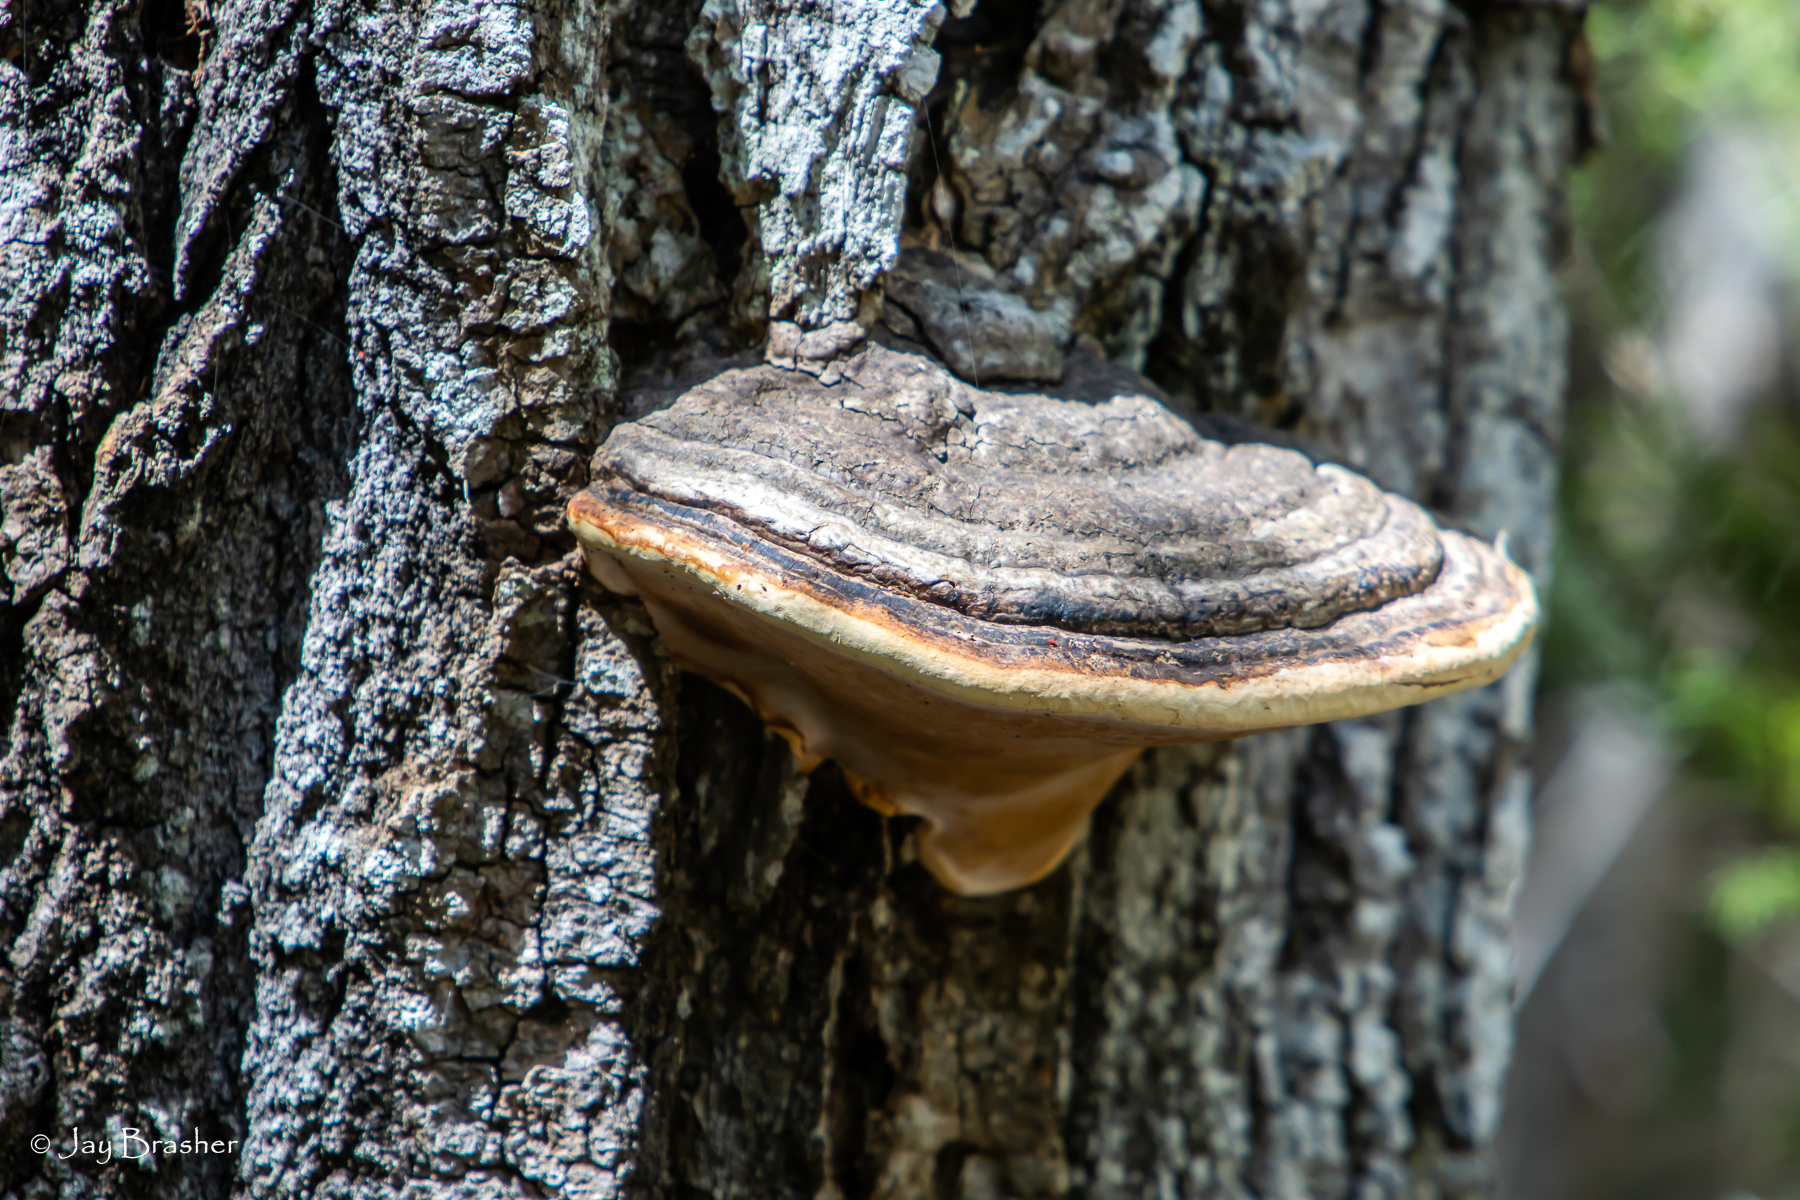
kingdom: Fungi
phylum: Basidiomycota
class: Agaricomycetes
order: Polyporales
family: Fomitopsidaceae
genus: Fomitopsis
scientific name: Fomitopsis mounceae
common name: Northern red belt
